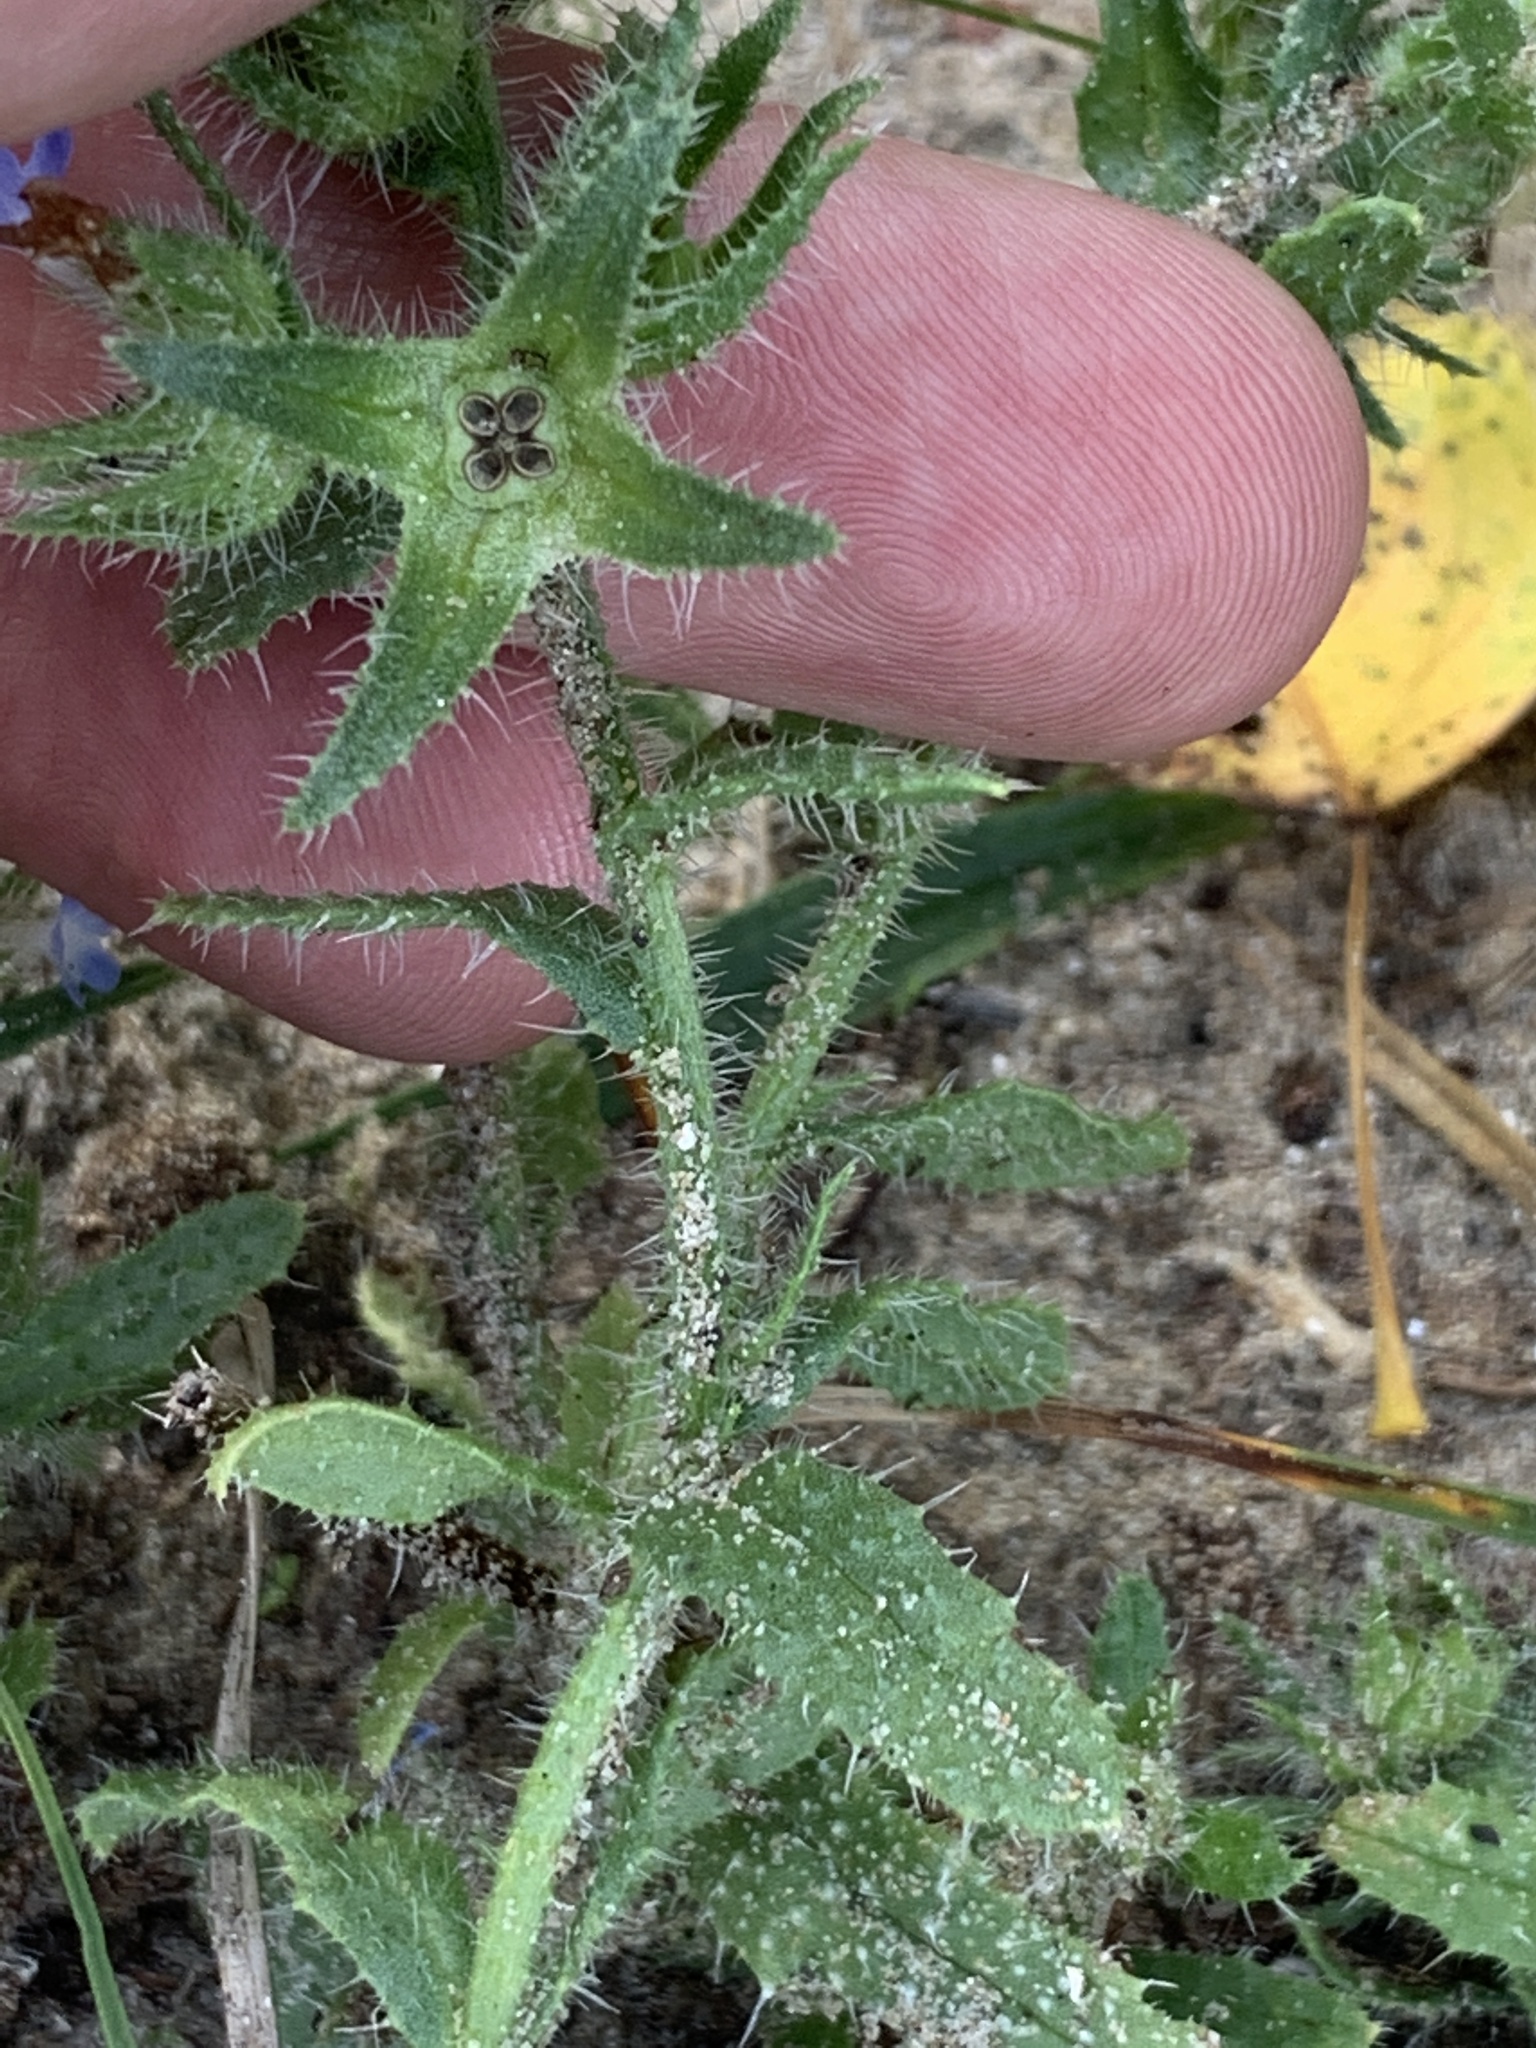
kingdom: Plantae
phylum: Tracheophyta
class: Magnoliopsida
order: Boraginales
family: Boraginaceae
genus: Lycopsis
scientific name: Lycopsis arvensis
